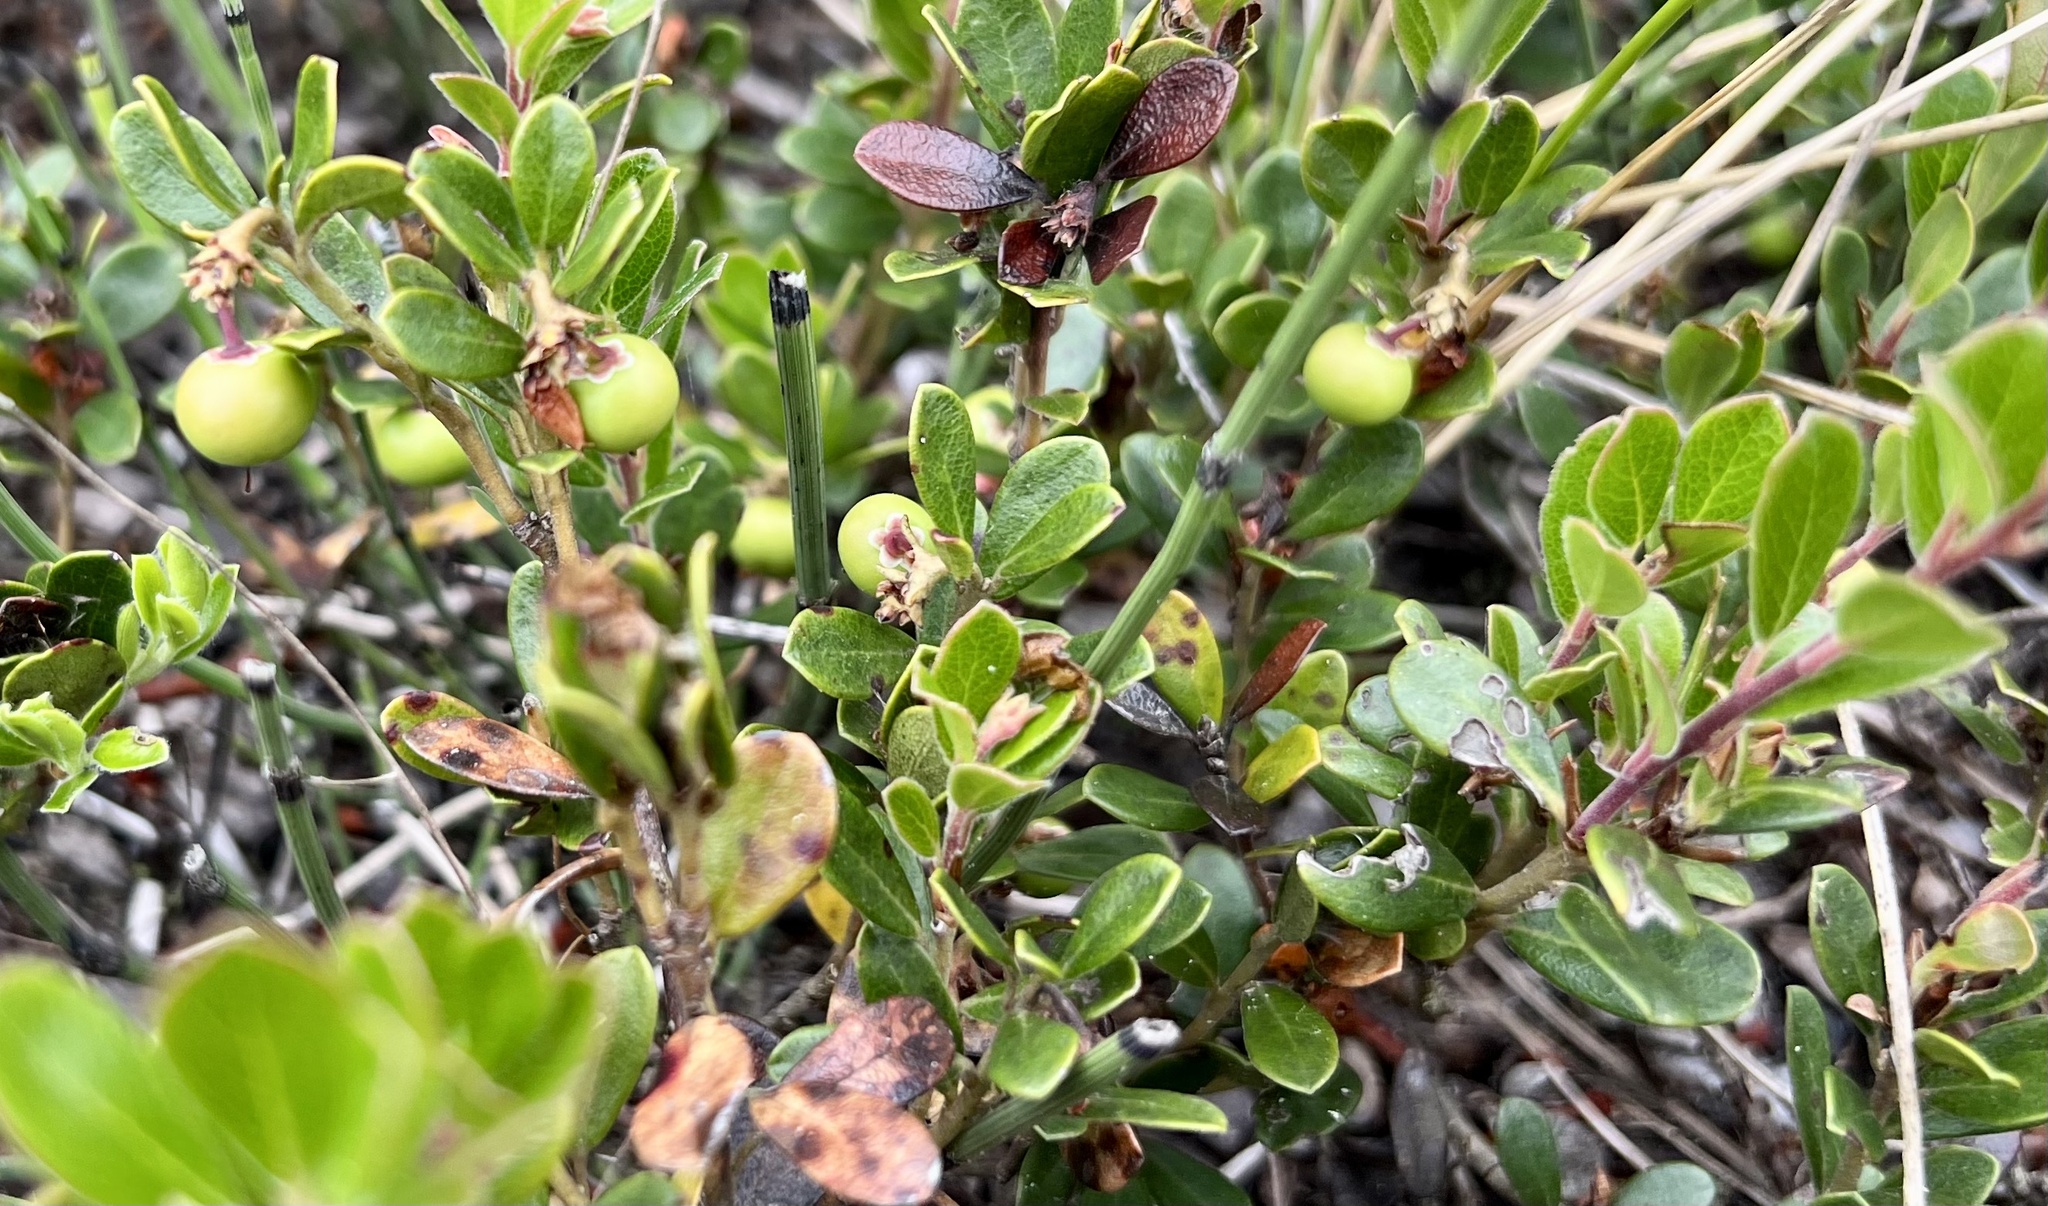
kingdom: Plantae
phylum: Tracheophyta
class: Magnoliopsida
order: Ericales
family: Ericaceae
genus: Arctostaphylos
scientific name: Arctostaphylos uva-ursi
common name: Bearberry
